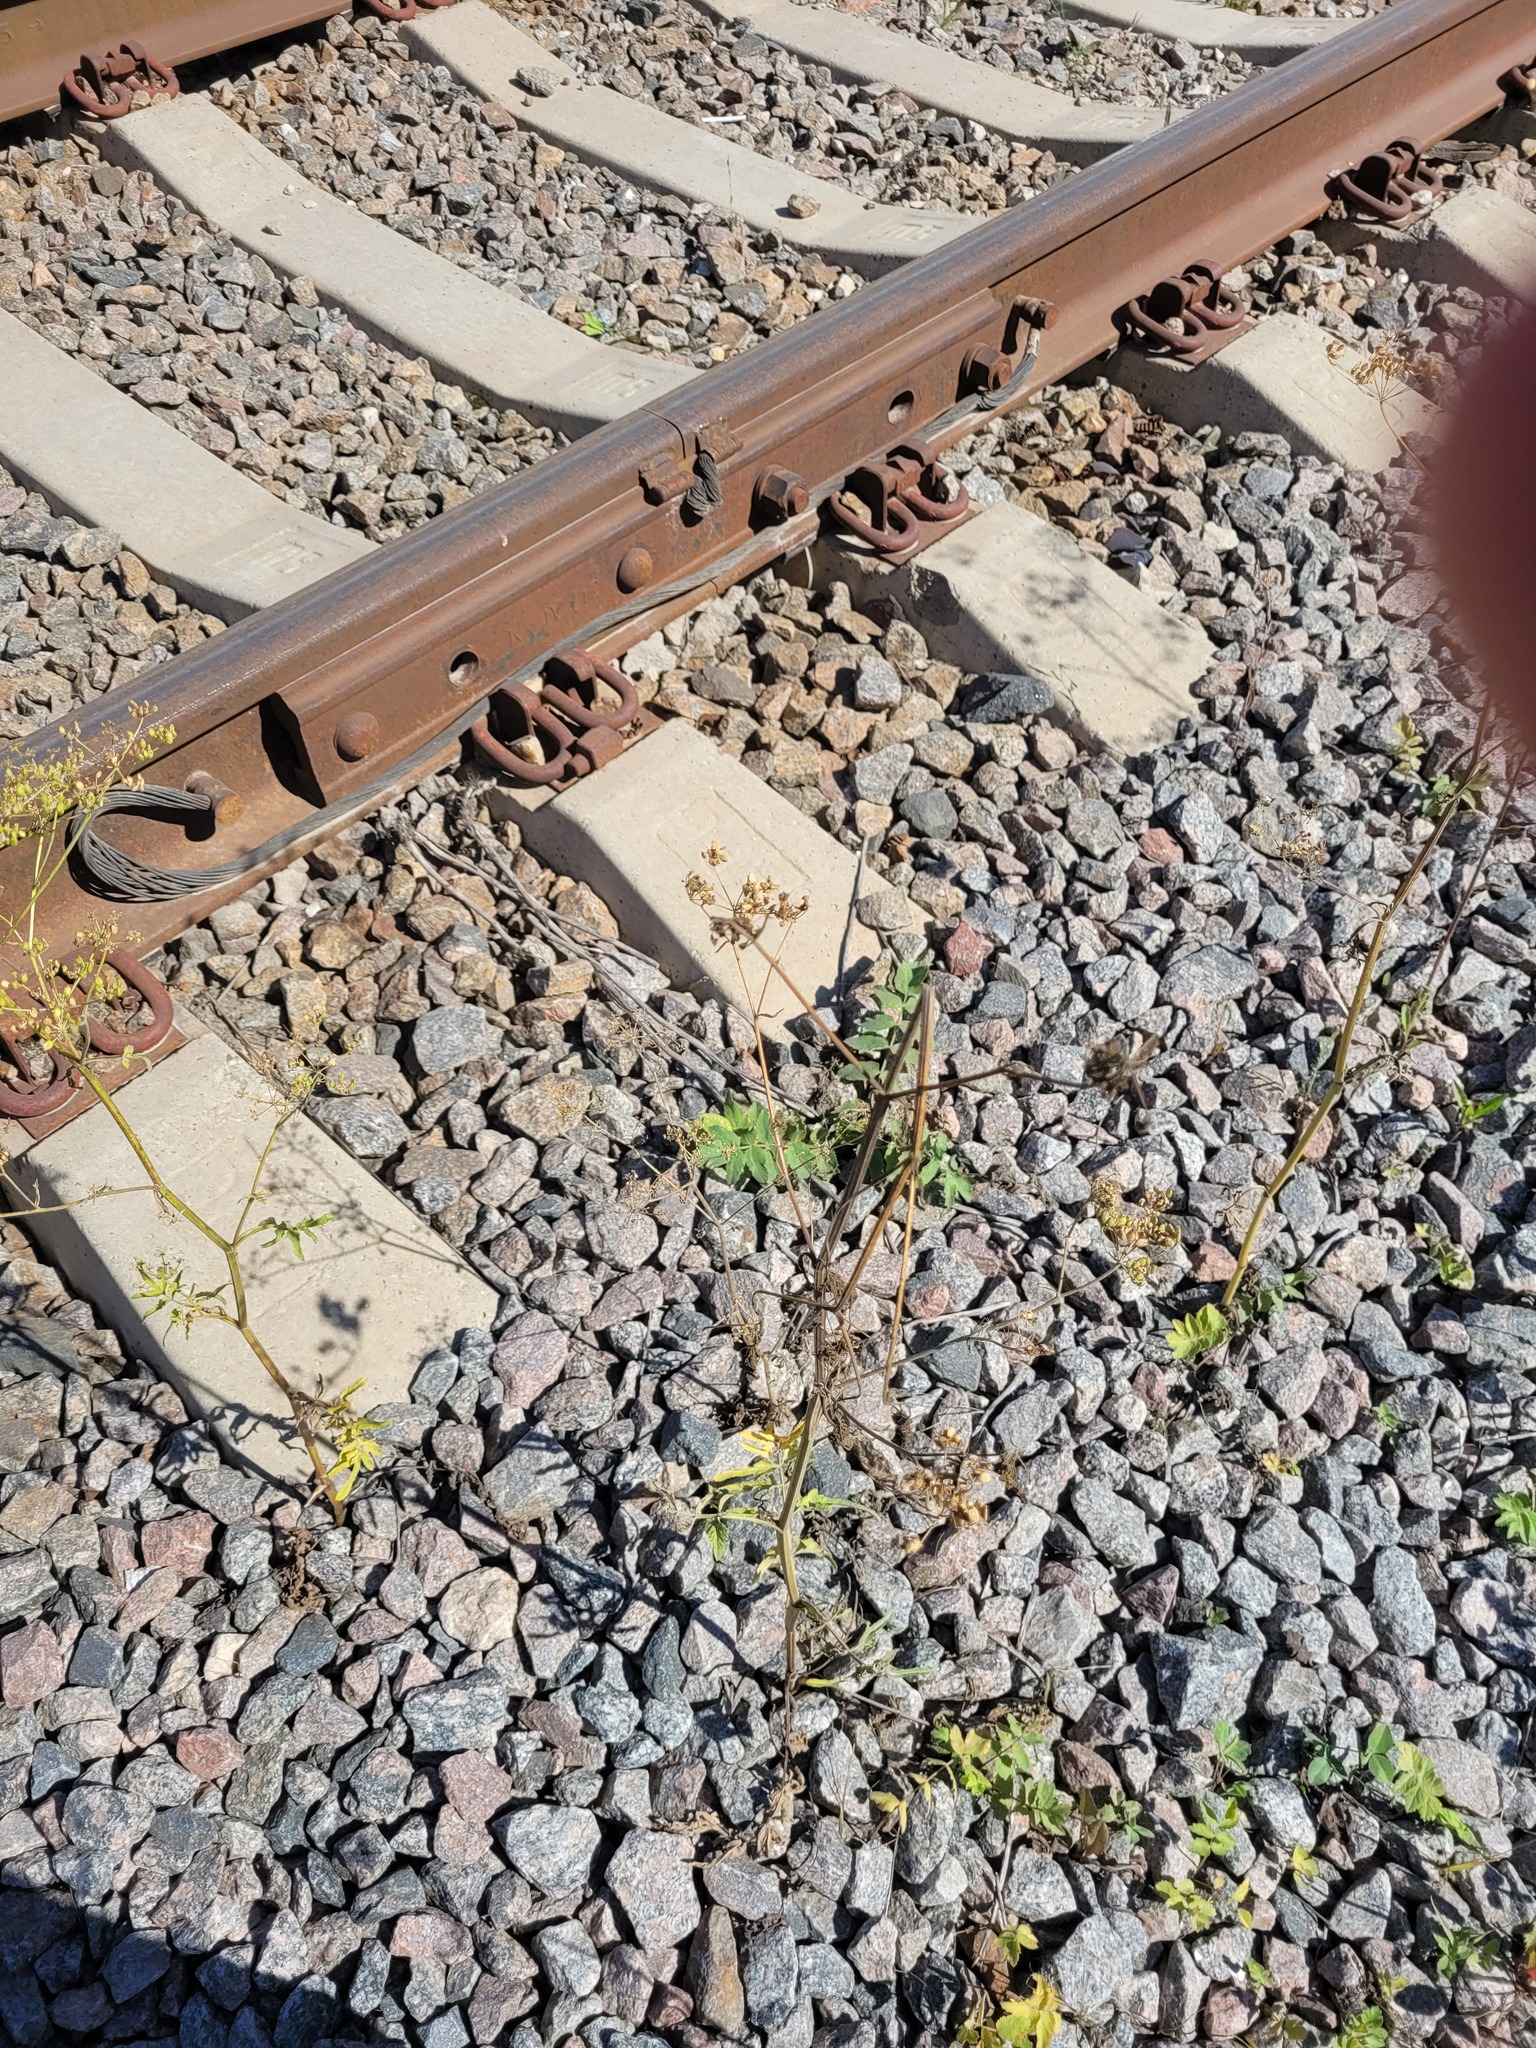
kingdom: Plantae
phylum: Tracheophyta
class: Magnoliopsida
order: Apiales
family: Apiaceae
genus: Pastinaca
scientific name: Pastinaca sativa
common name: Wild parsnip
